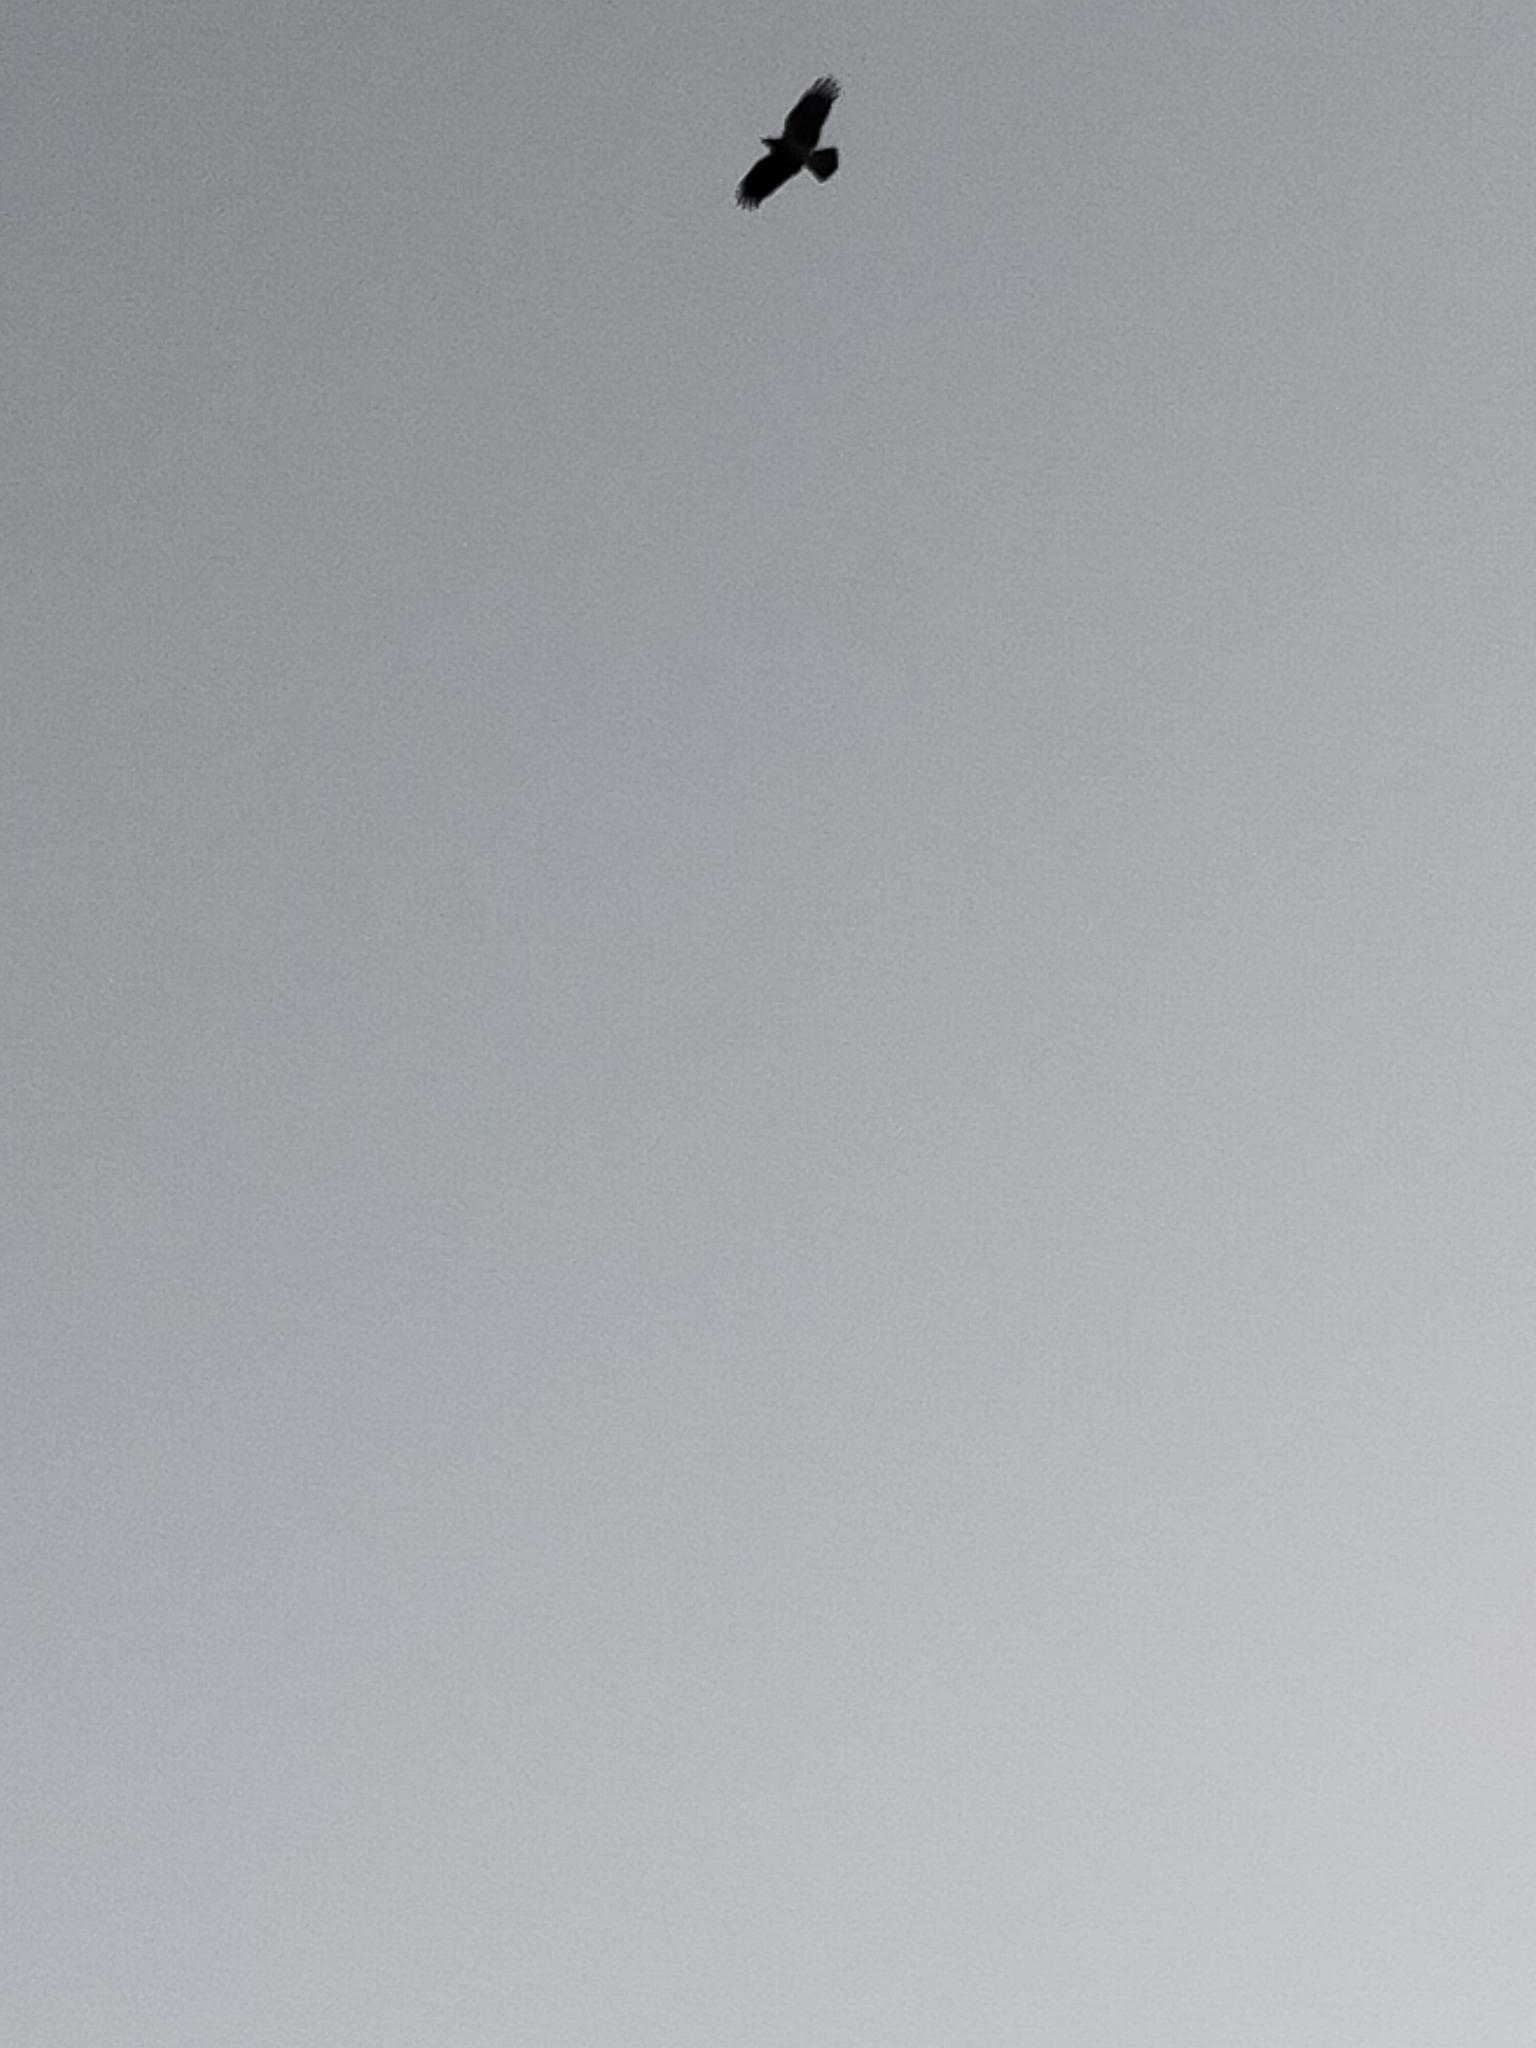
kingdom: Animalia
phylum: Chordata
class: Aves
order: Passeriformes
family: Corvidae
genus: Corvus
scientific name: Corvus cornix
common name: Hooded crow
